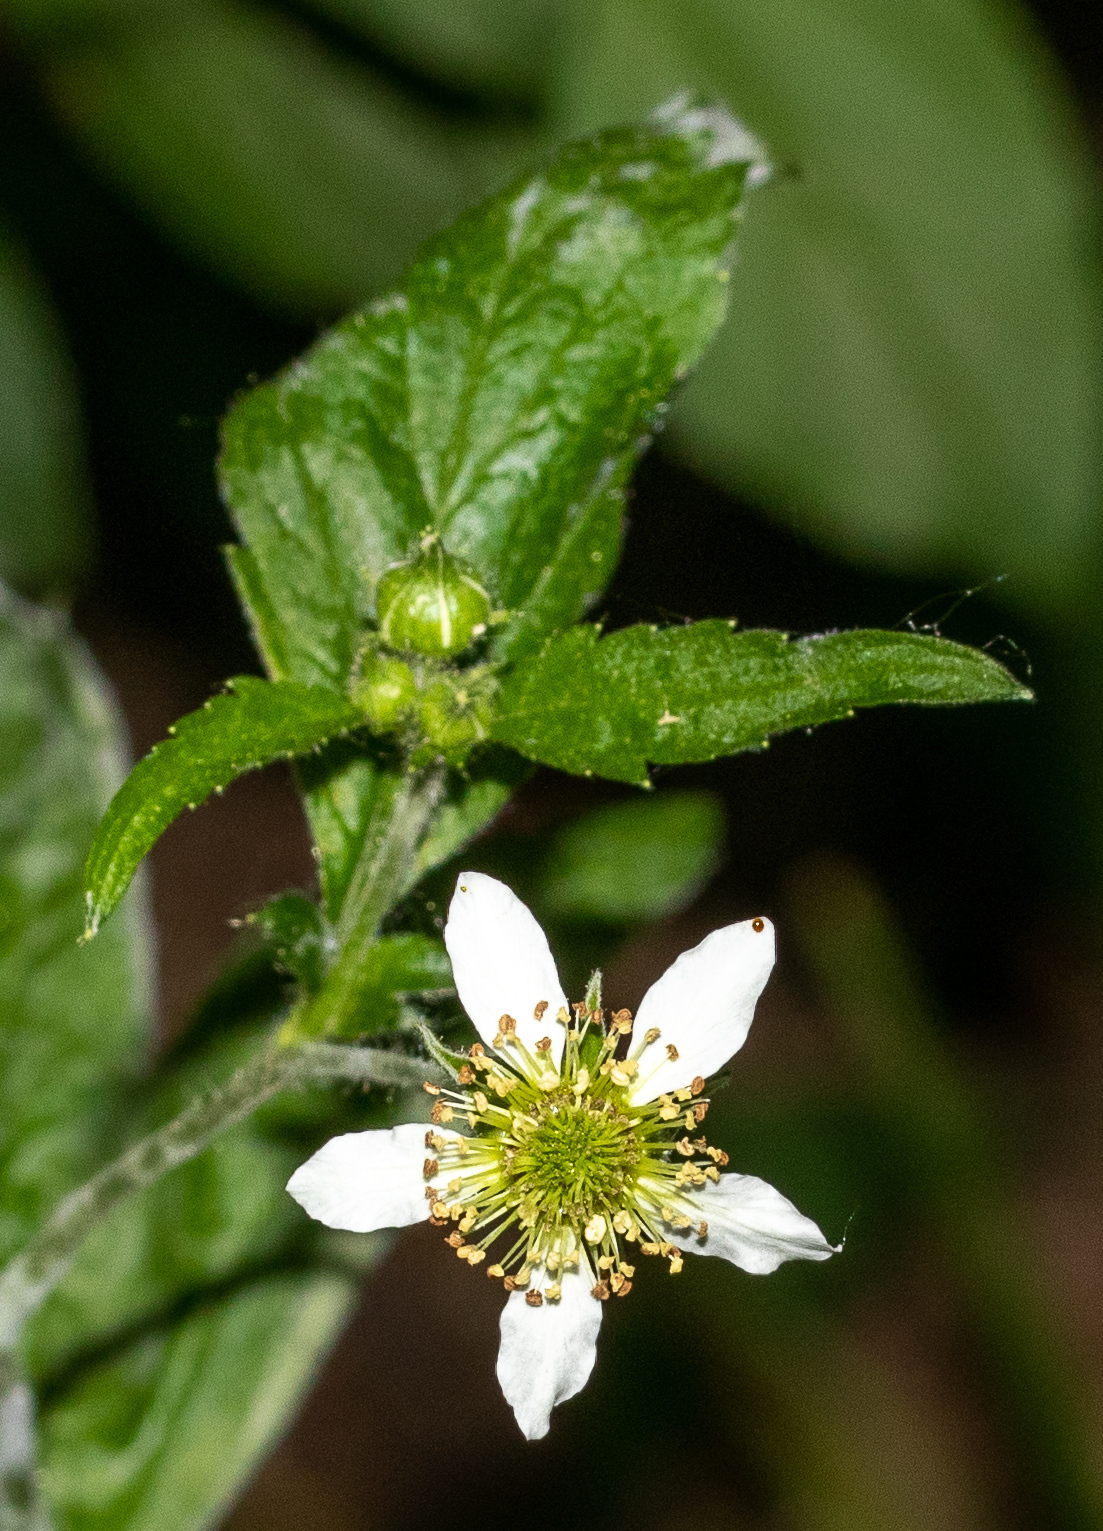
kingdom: Plantae
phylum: Tracheophyta
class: Magnoliopsida
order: Rosales
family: Rosaceae
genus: Geum
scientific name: Geum canadense
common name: White avens
